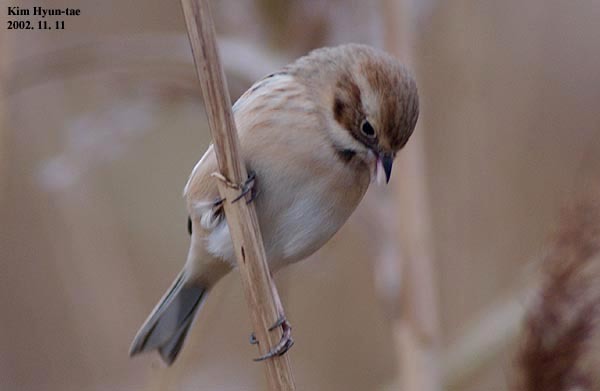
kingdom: Animalia
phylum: Chordata
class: Aves
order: Passeriformes
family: Emberizidae
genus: Emberiza
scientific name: Emberiza pallasi
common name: Pallas's reed bunting
